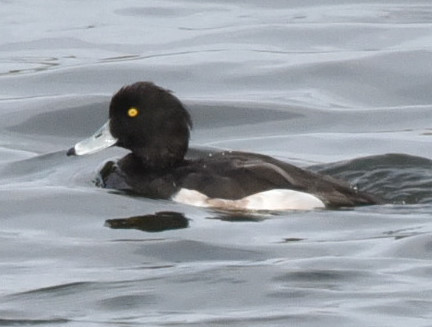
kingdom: Animalia
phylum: Chordata
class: Aves
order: Anseriformes
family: Anatidae
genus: Aythya
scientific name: Aythya fuligula
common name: Tufted duck
